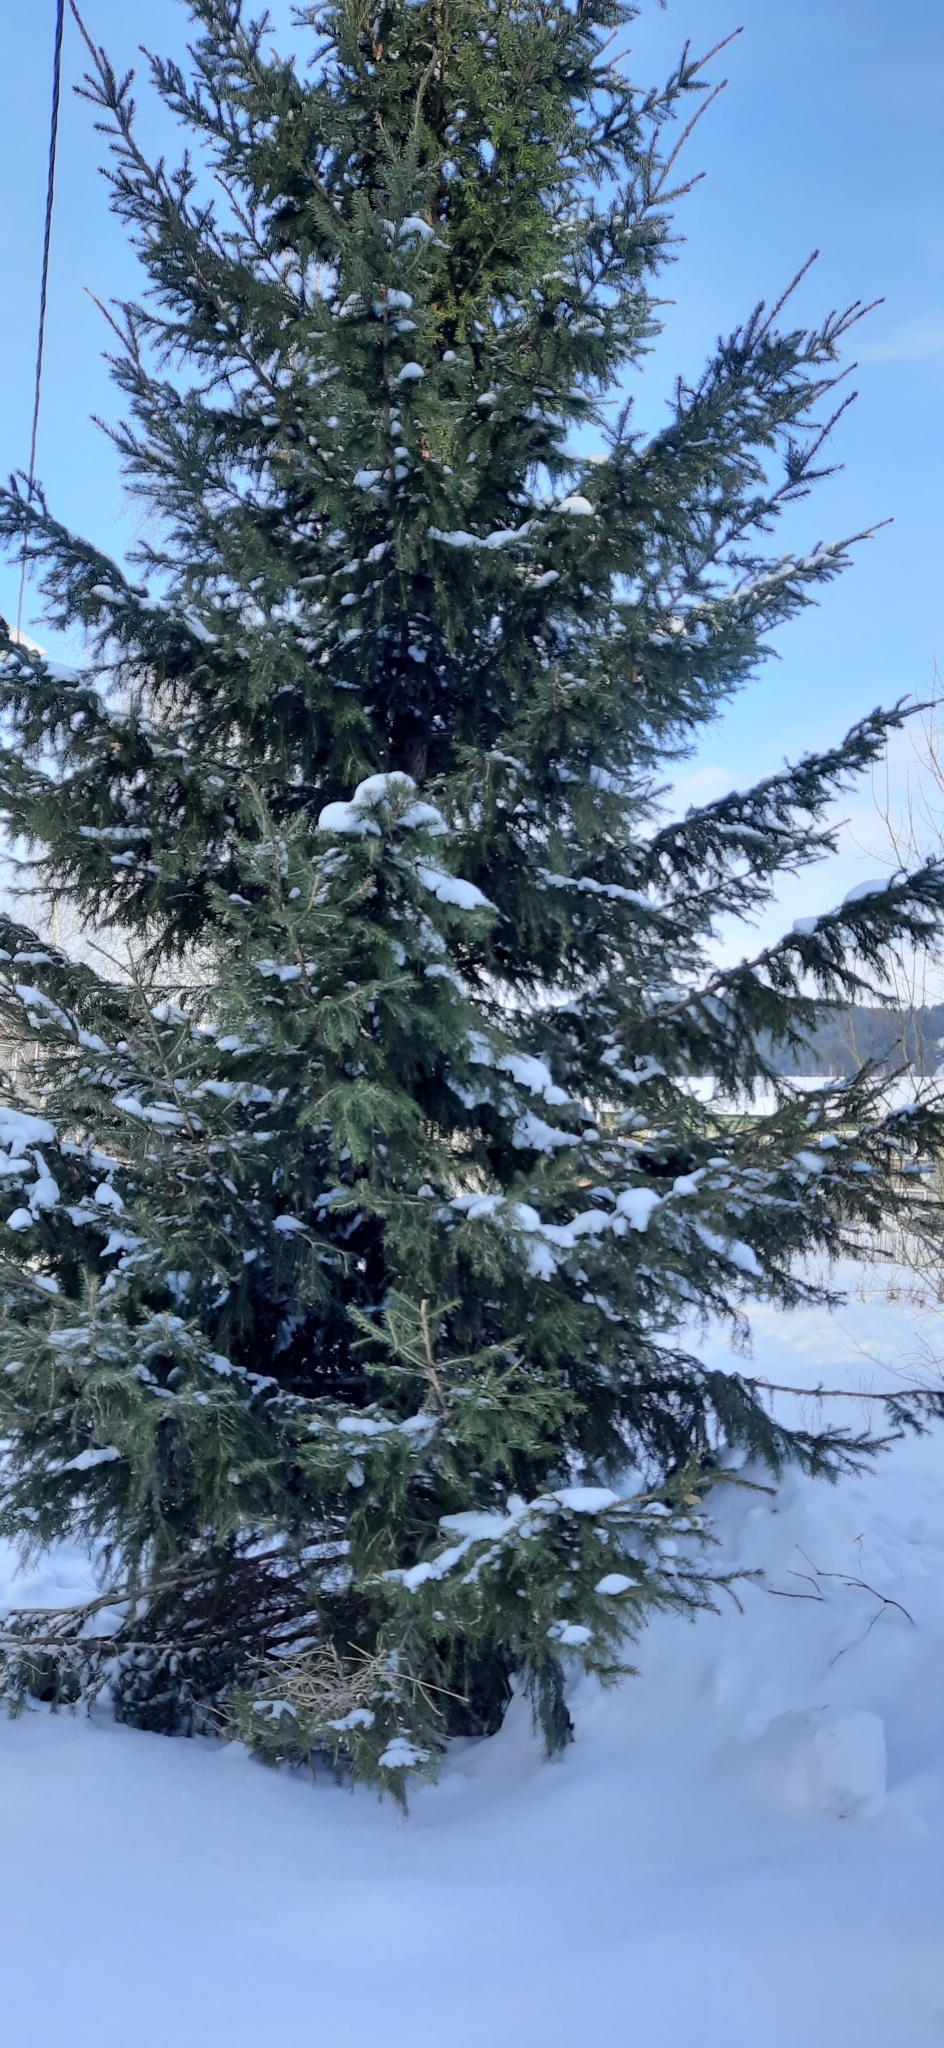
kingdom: Plantae
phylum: Tracheophyta
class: Pinopsida
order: Pinales
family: Pinaceae
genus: Picea
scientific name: Picea obovata
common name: Siberian spruce
